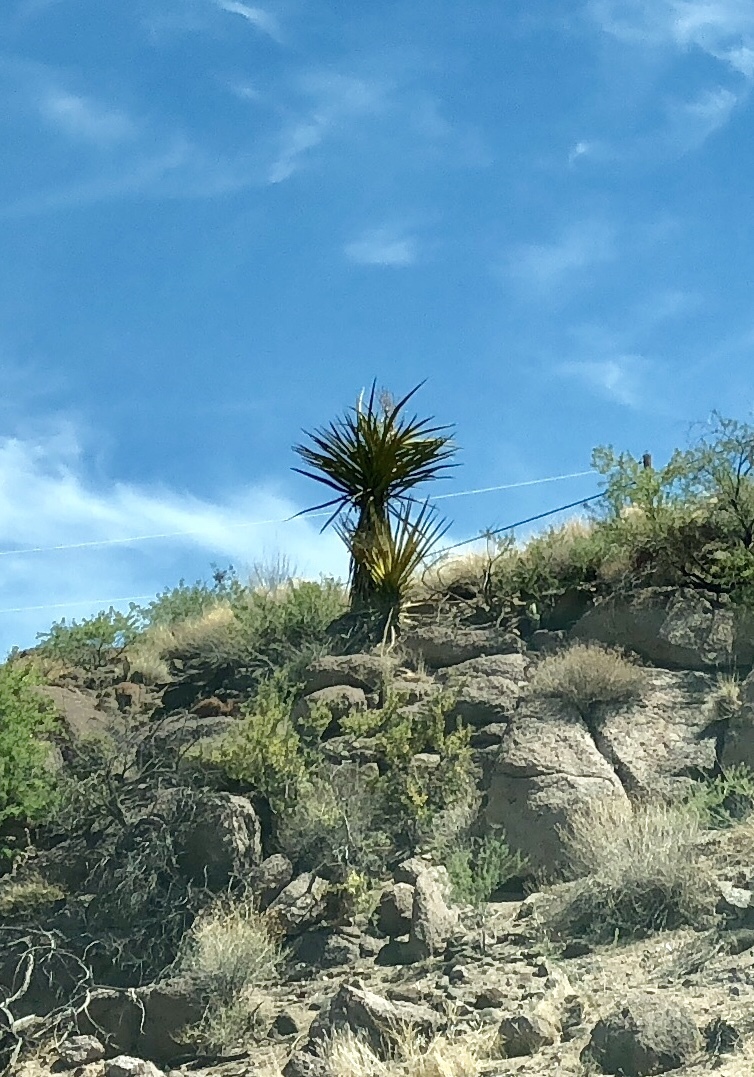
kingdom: Plantae
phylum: Tracheophyta
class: Liliopsida
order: Asparagales
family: Asparagaceae
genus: Yucca
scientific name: Yucca schidigera
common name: Mojave yucca
